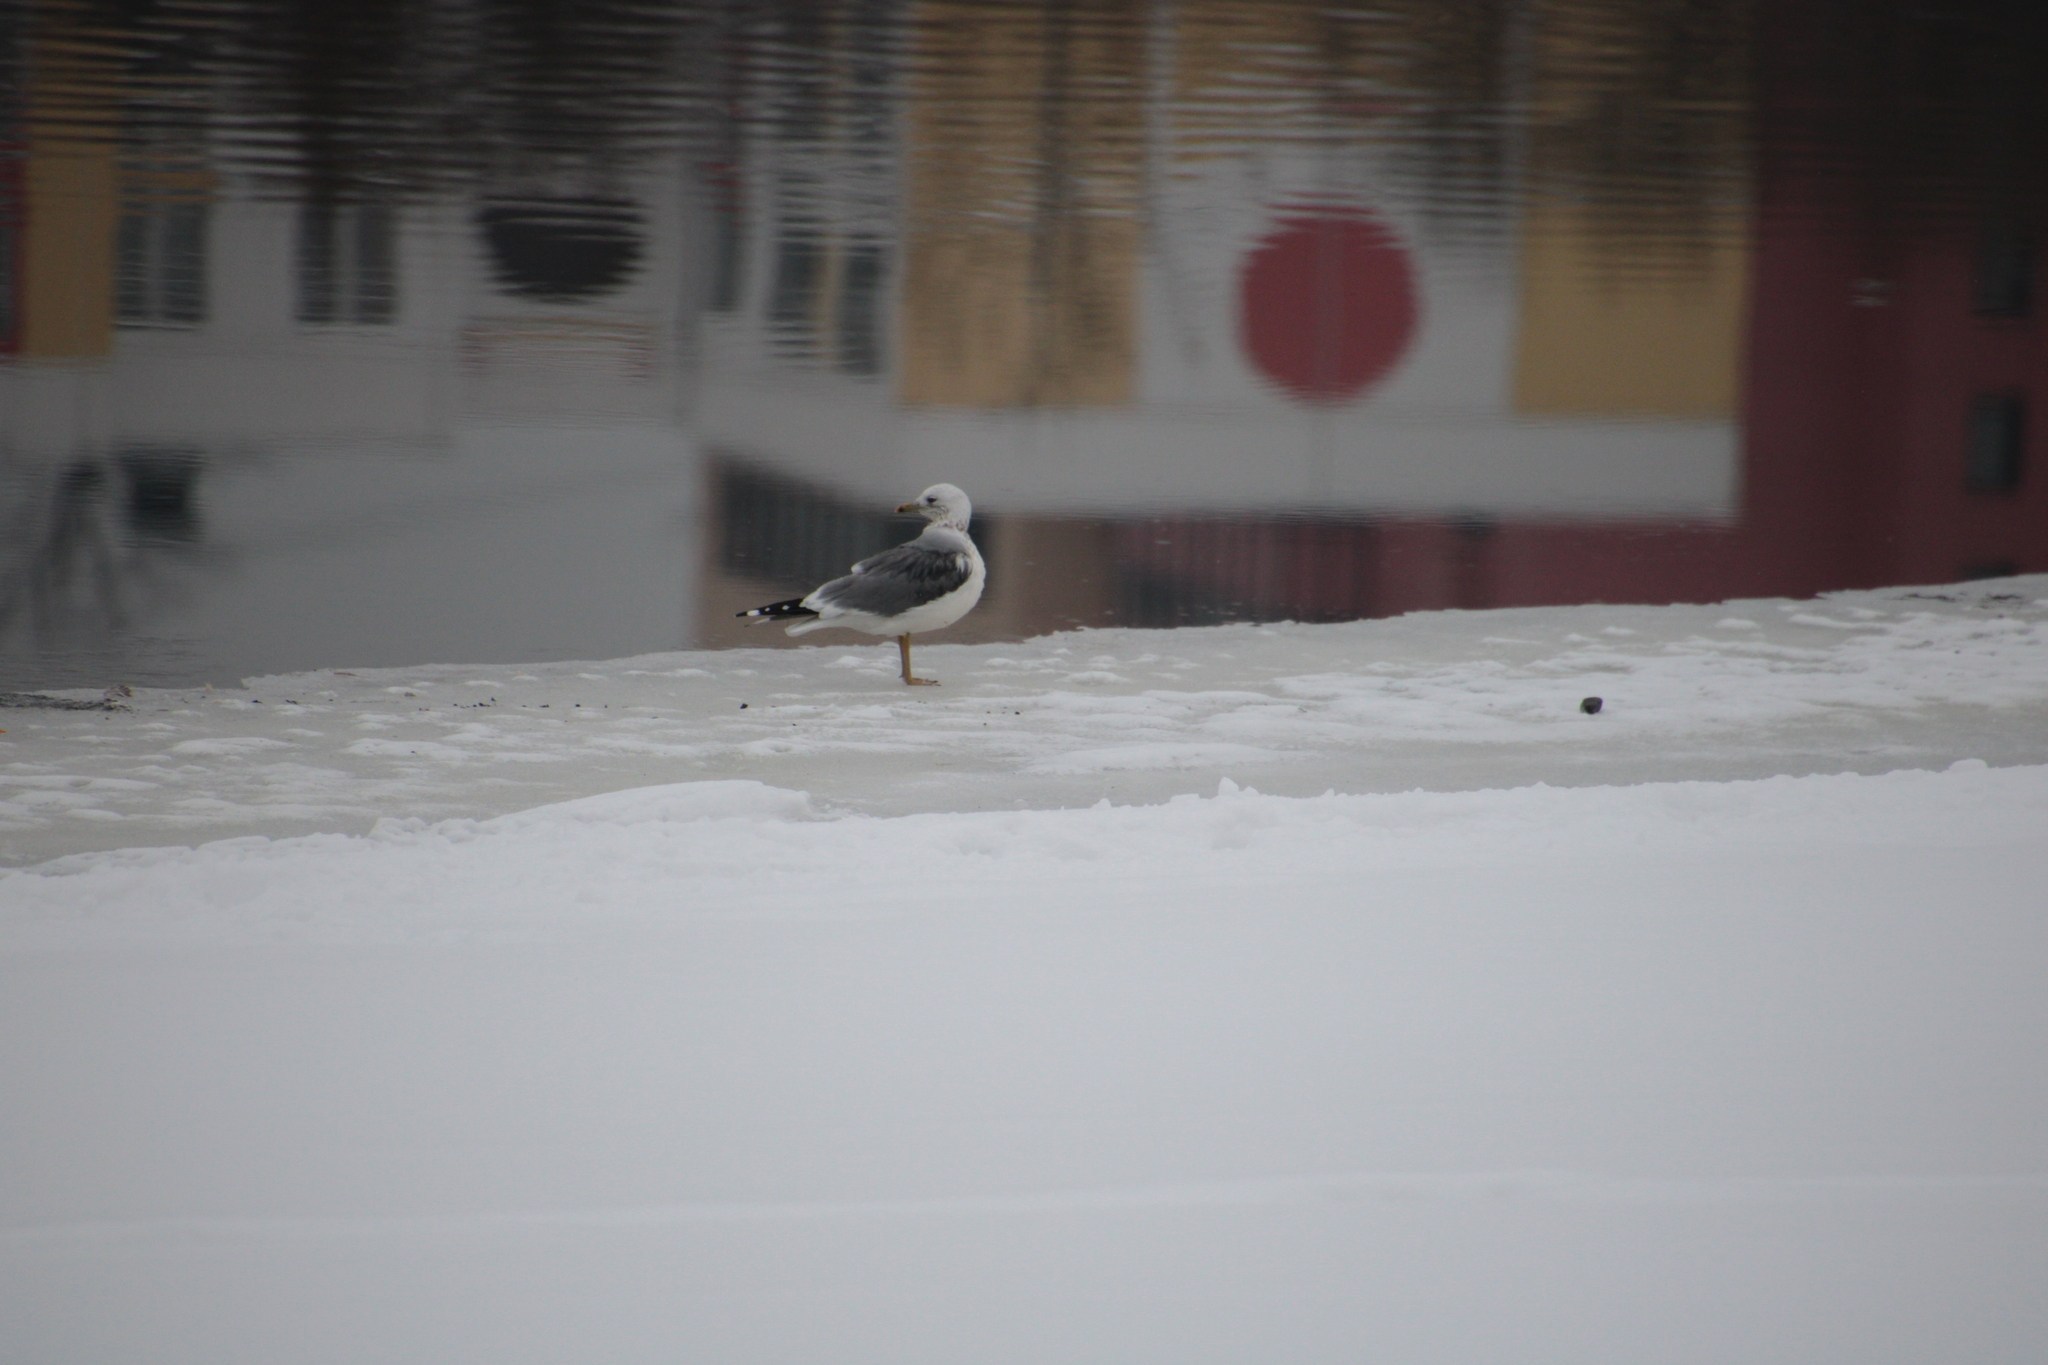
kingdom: Animalia
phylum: Chordata
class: Aves
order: Charadriiformes
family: Laridae
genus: Larus
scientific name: Larus canus
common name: Mew gull
